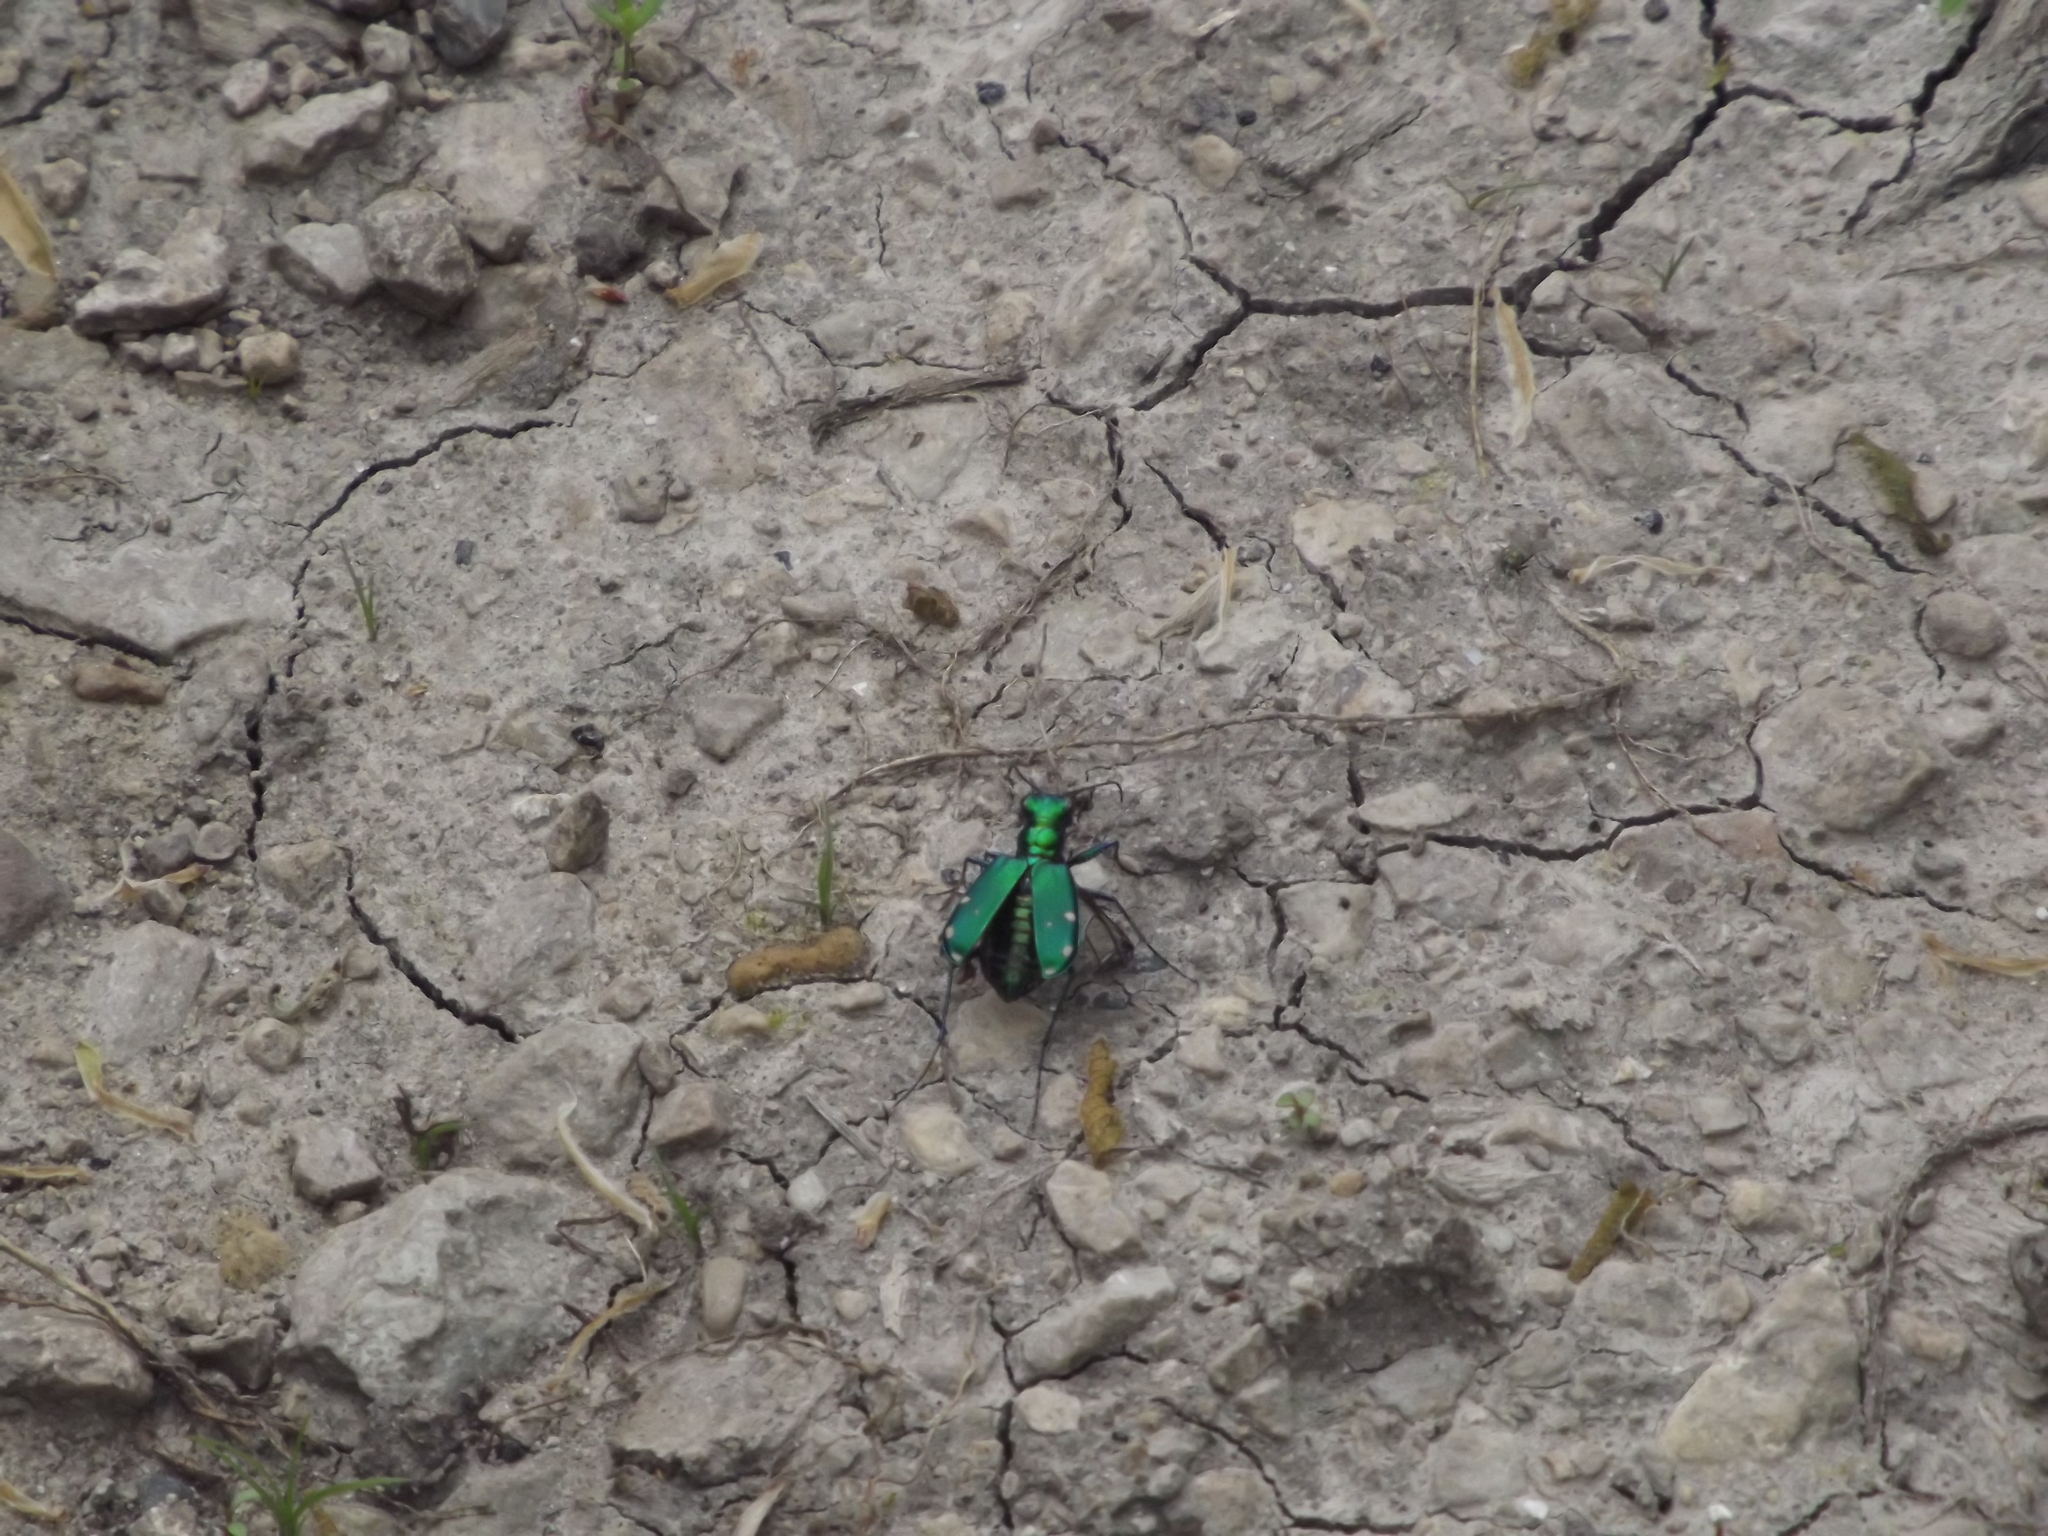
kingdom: Animalia
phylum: Arthropoda
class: Insecta
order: Coleoptera
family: Carabidae
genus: Cicindela
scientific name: Cicindela sexguttata
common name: Six-spotted tiger beetle
